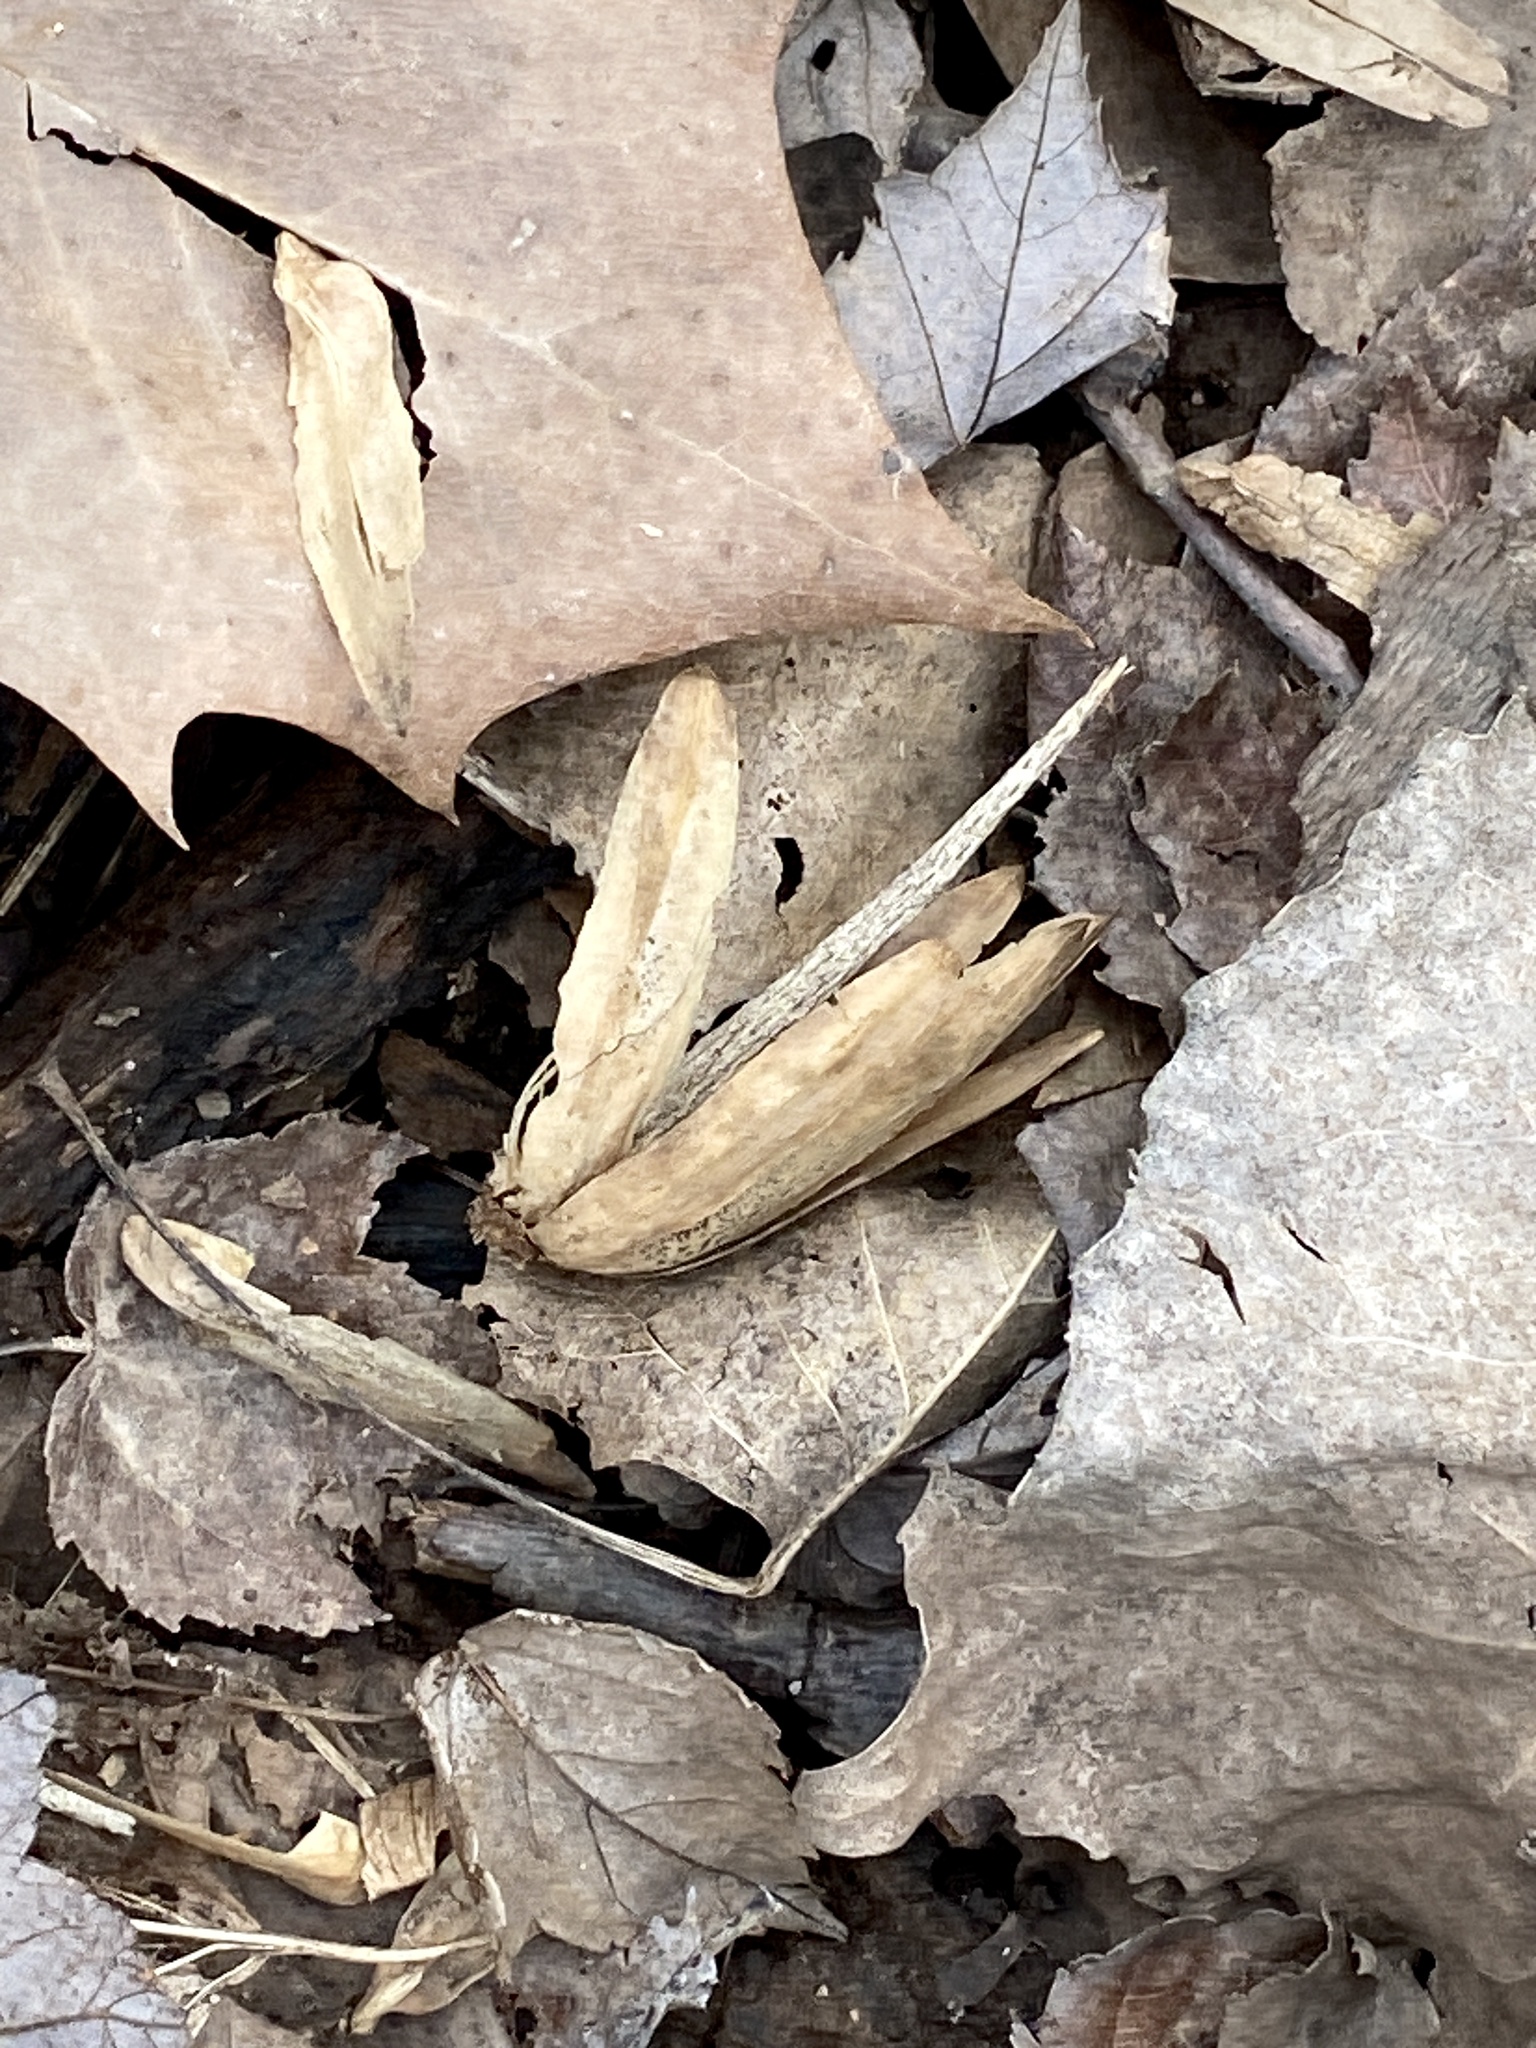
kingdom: Plantae
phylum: Tracheophyta
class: Magnoliopsida
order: Magnoliales
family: Magnoliaceae
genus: Liriodendron
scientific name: Liriodendron tulipifera
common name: Tulip tree
